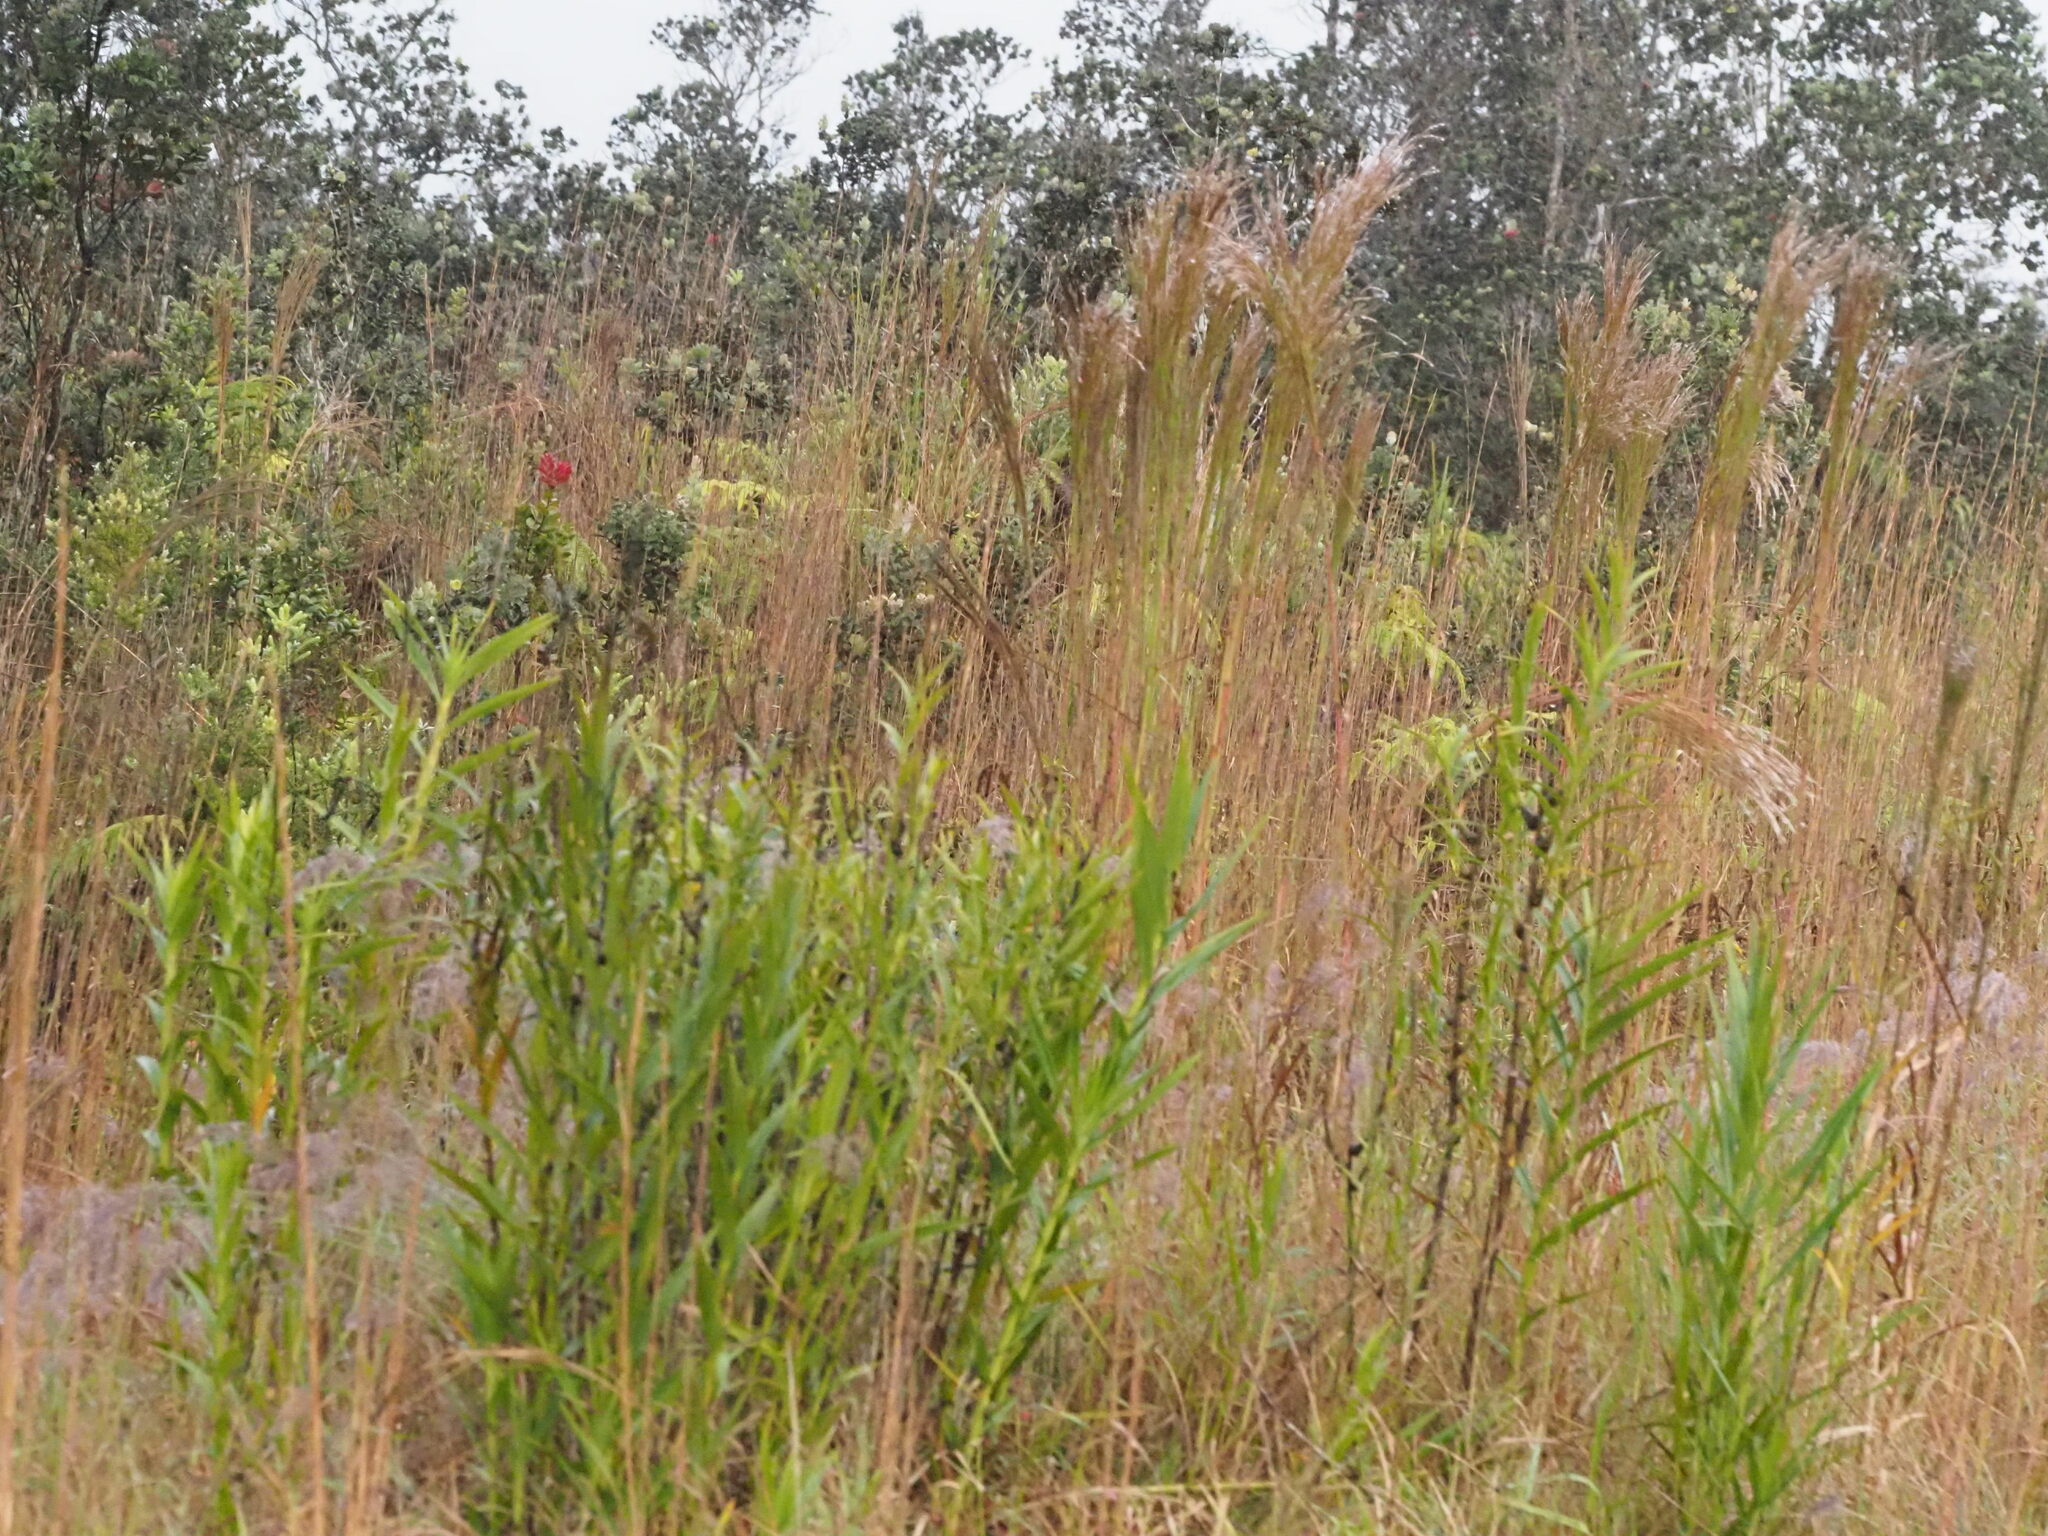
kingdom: Plantae
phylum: Tracheophyta
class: Liliopsida
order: Poales
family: Poaceae
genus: Andropogon
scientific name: Andropogon bicornis
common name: West indian foxtail grass
